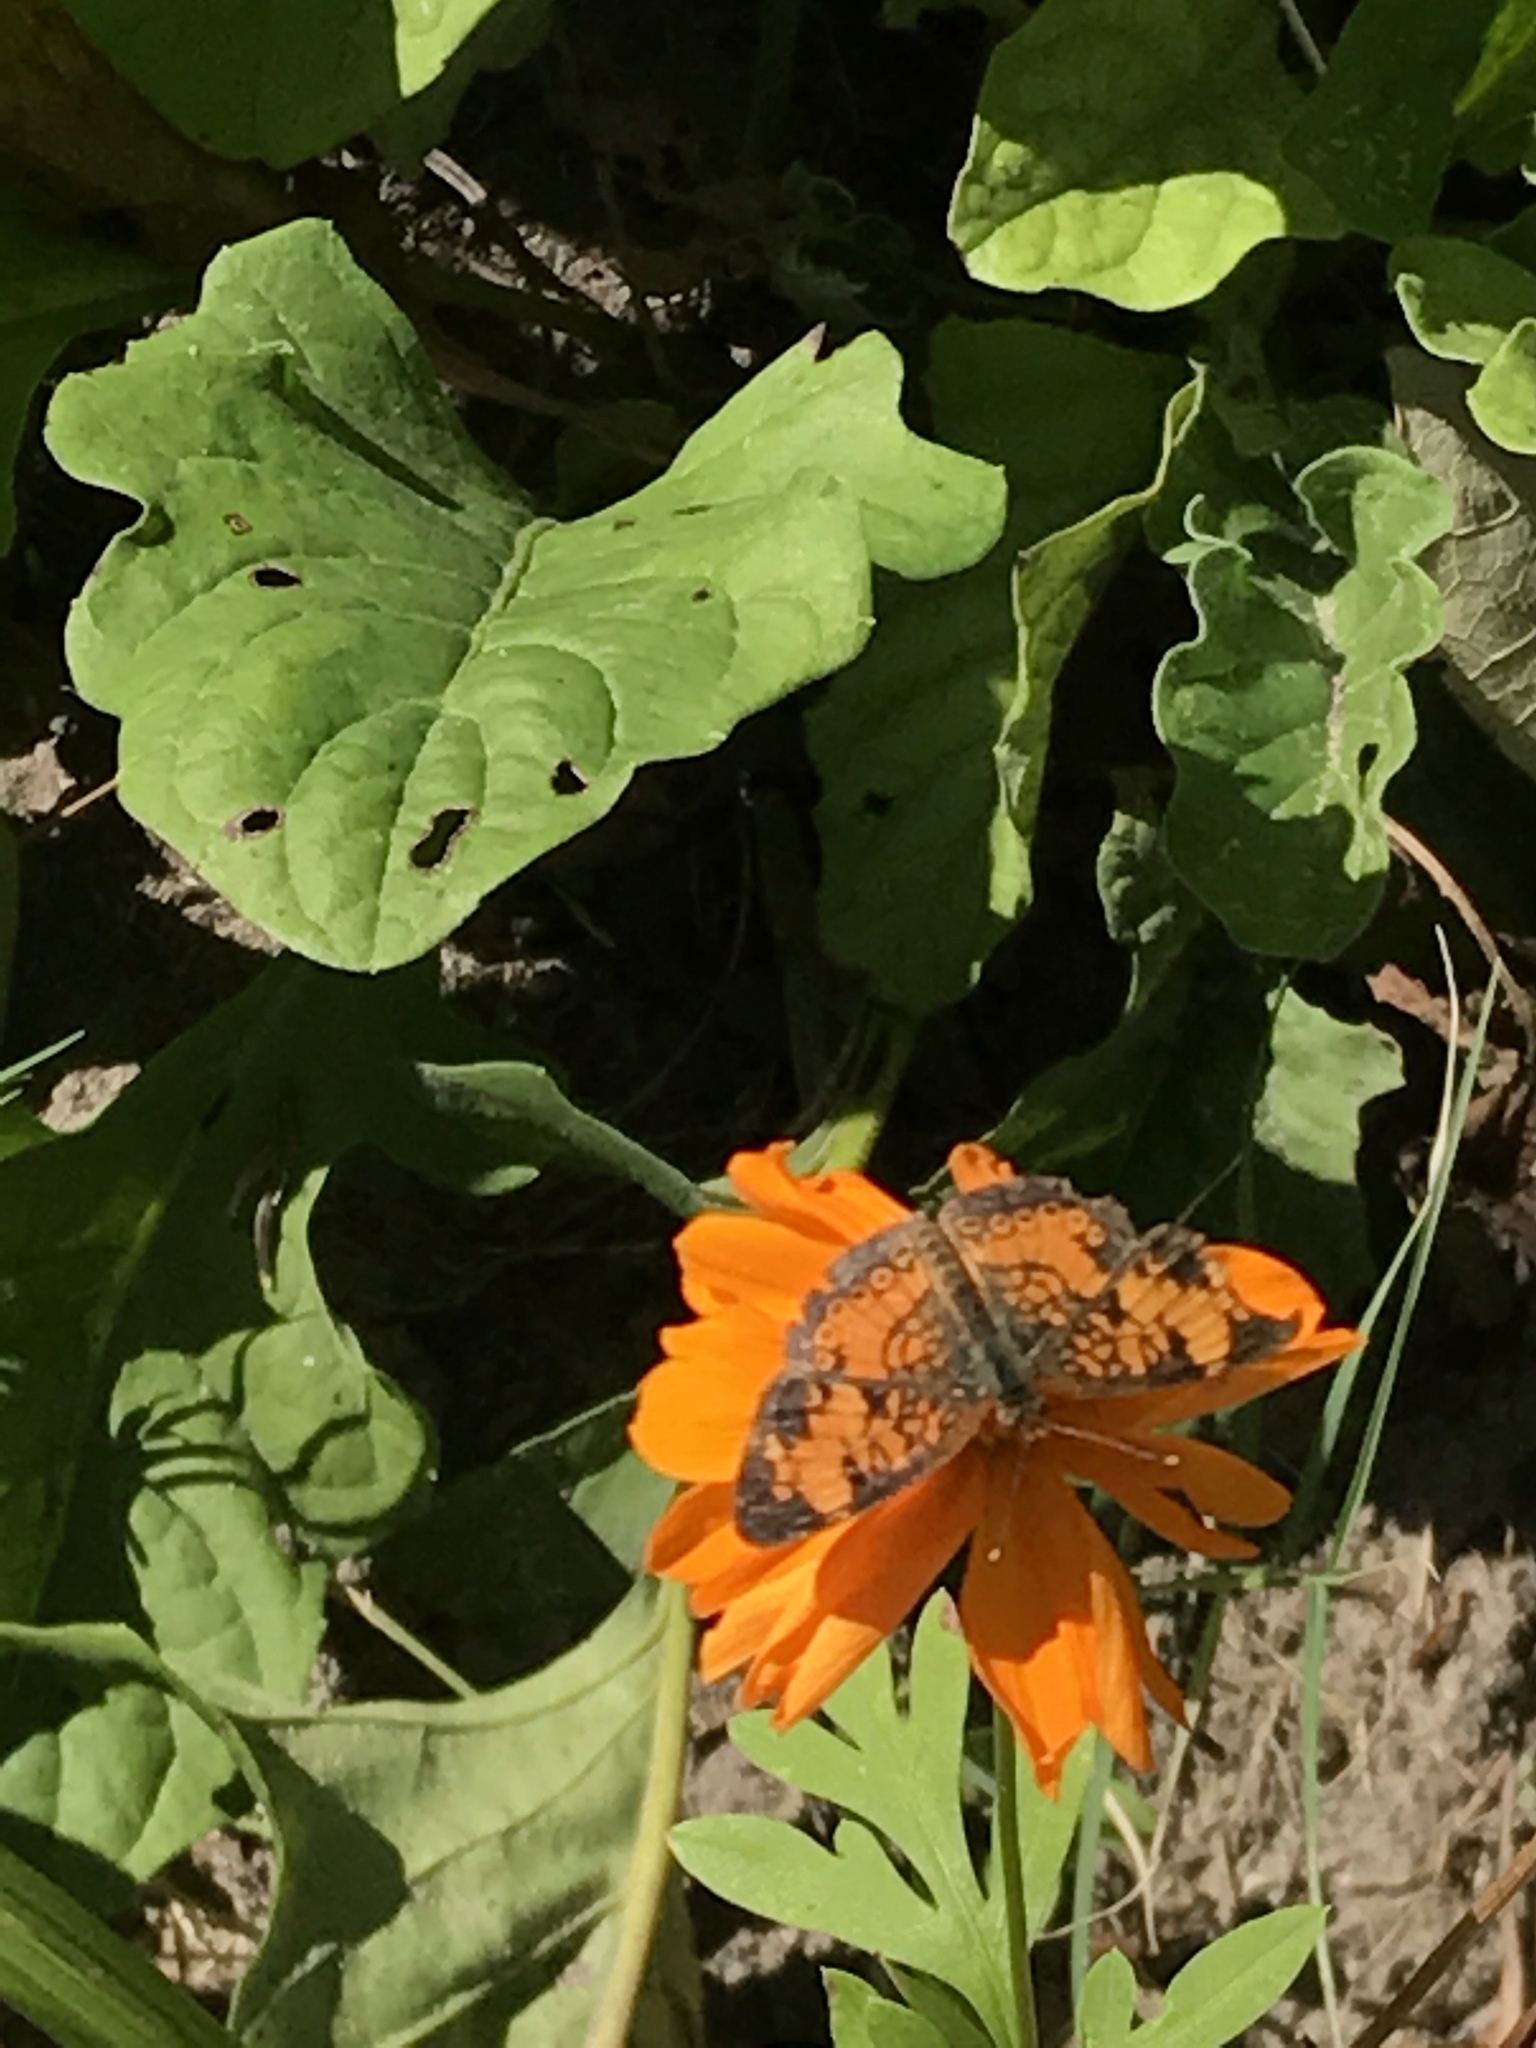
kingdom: Animalia
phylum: Arthropoda
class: Insecta
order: Lepidoptera
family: Nymphalidae
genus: Phyciodes
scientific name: Phyciodes tharos
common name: Pearl crescent
